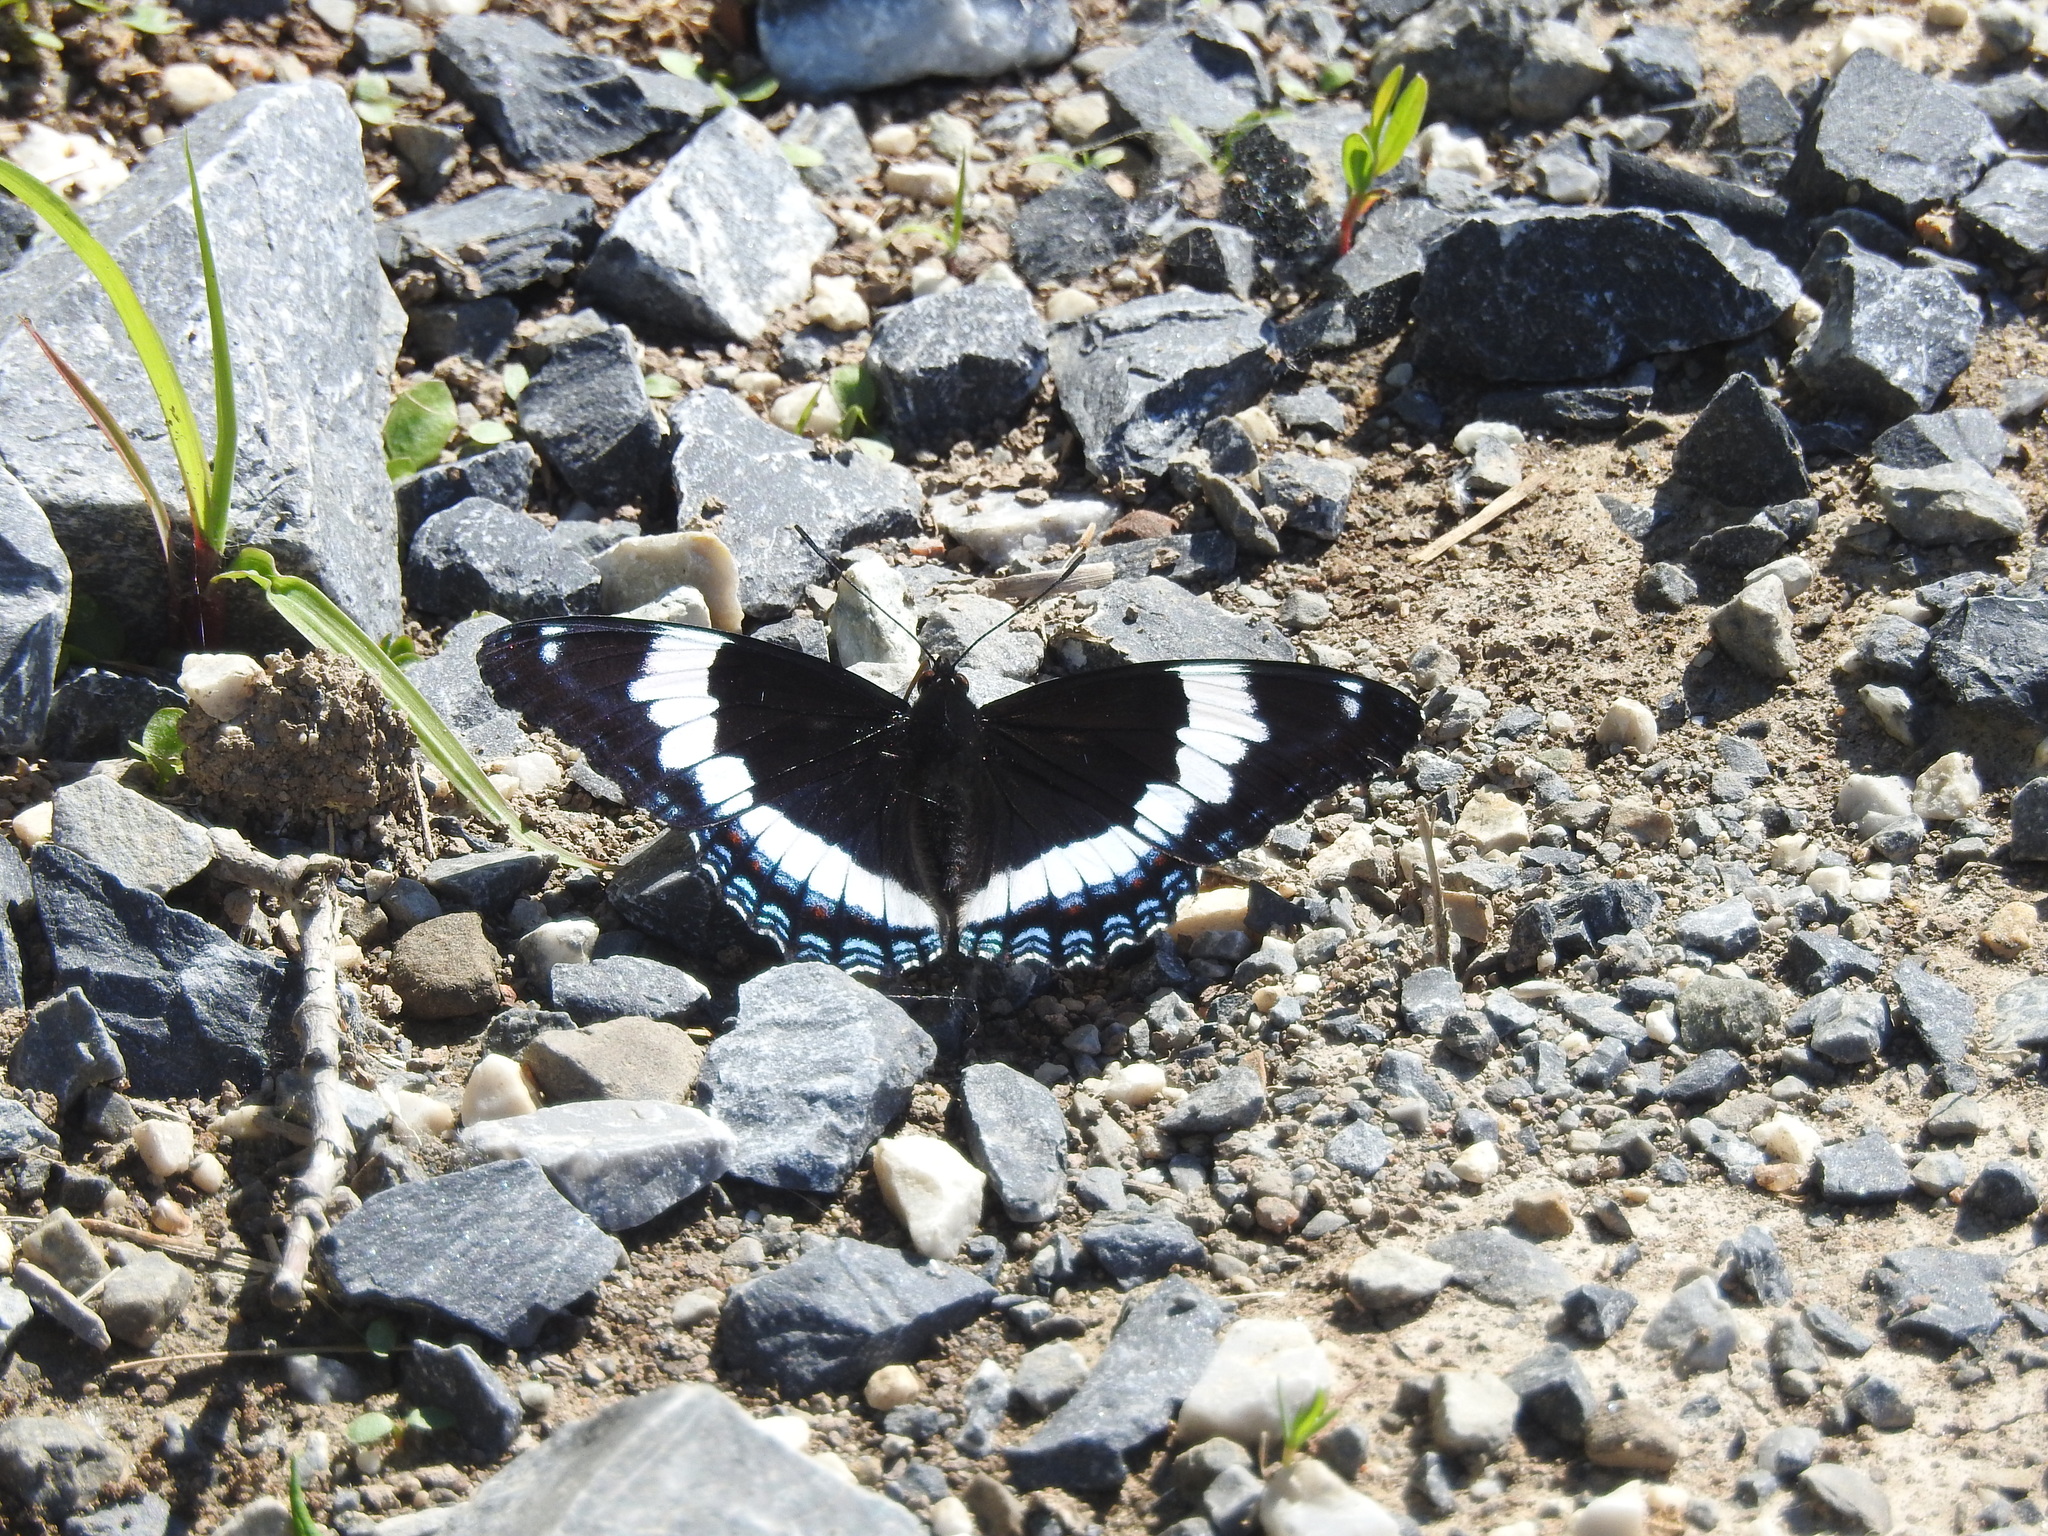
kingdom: Animalia
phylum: Arthropoda
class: Insecta
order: Lepidoptera
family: Nymphalidae
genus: Limenitis
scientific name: Limenitis arthemis
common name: Red-spotted admiral
